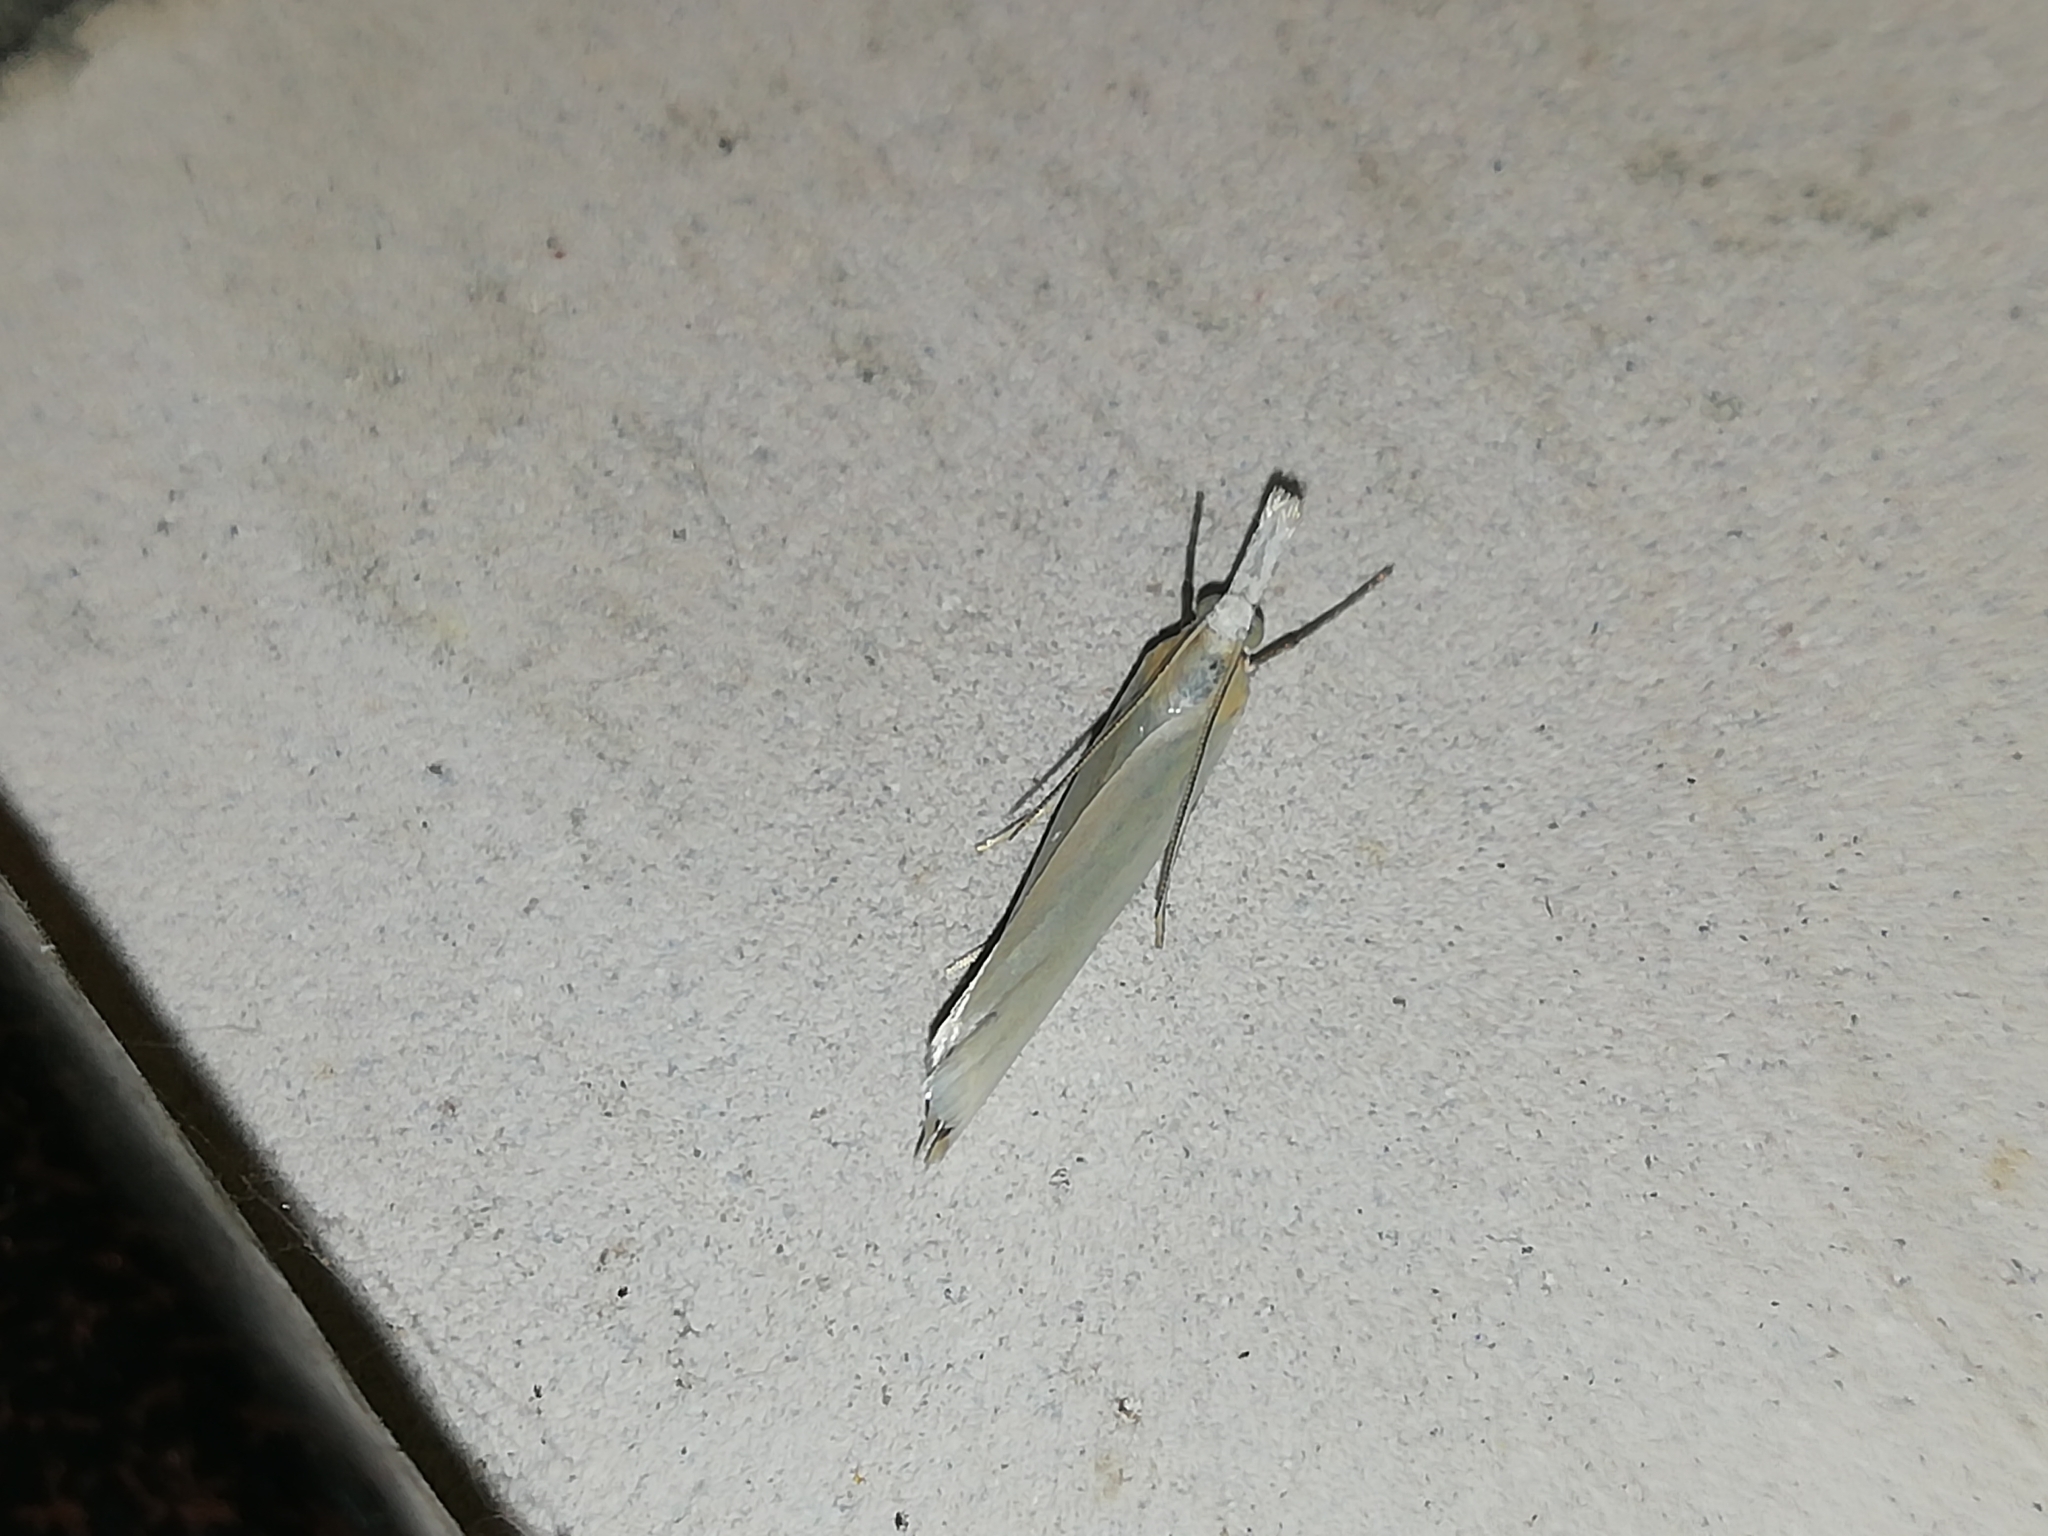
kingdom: Animalia
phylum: Arthropoda
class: Insecta
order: Lepidoptera
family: Crambidae
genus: Crambus
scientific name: Crambus perlellus
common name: Yellow satin veneer
